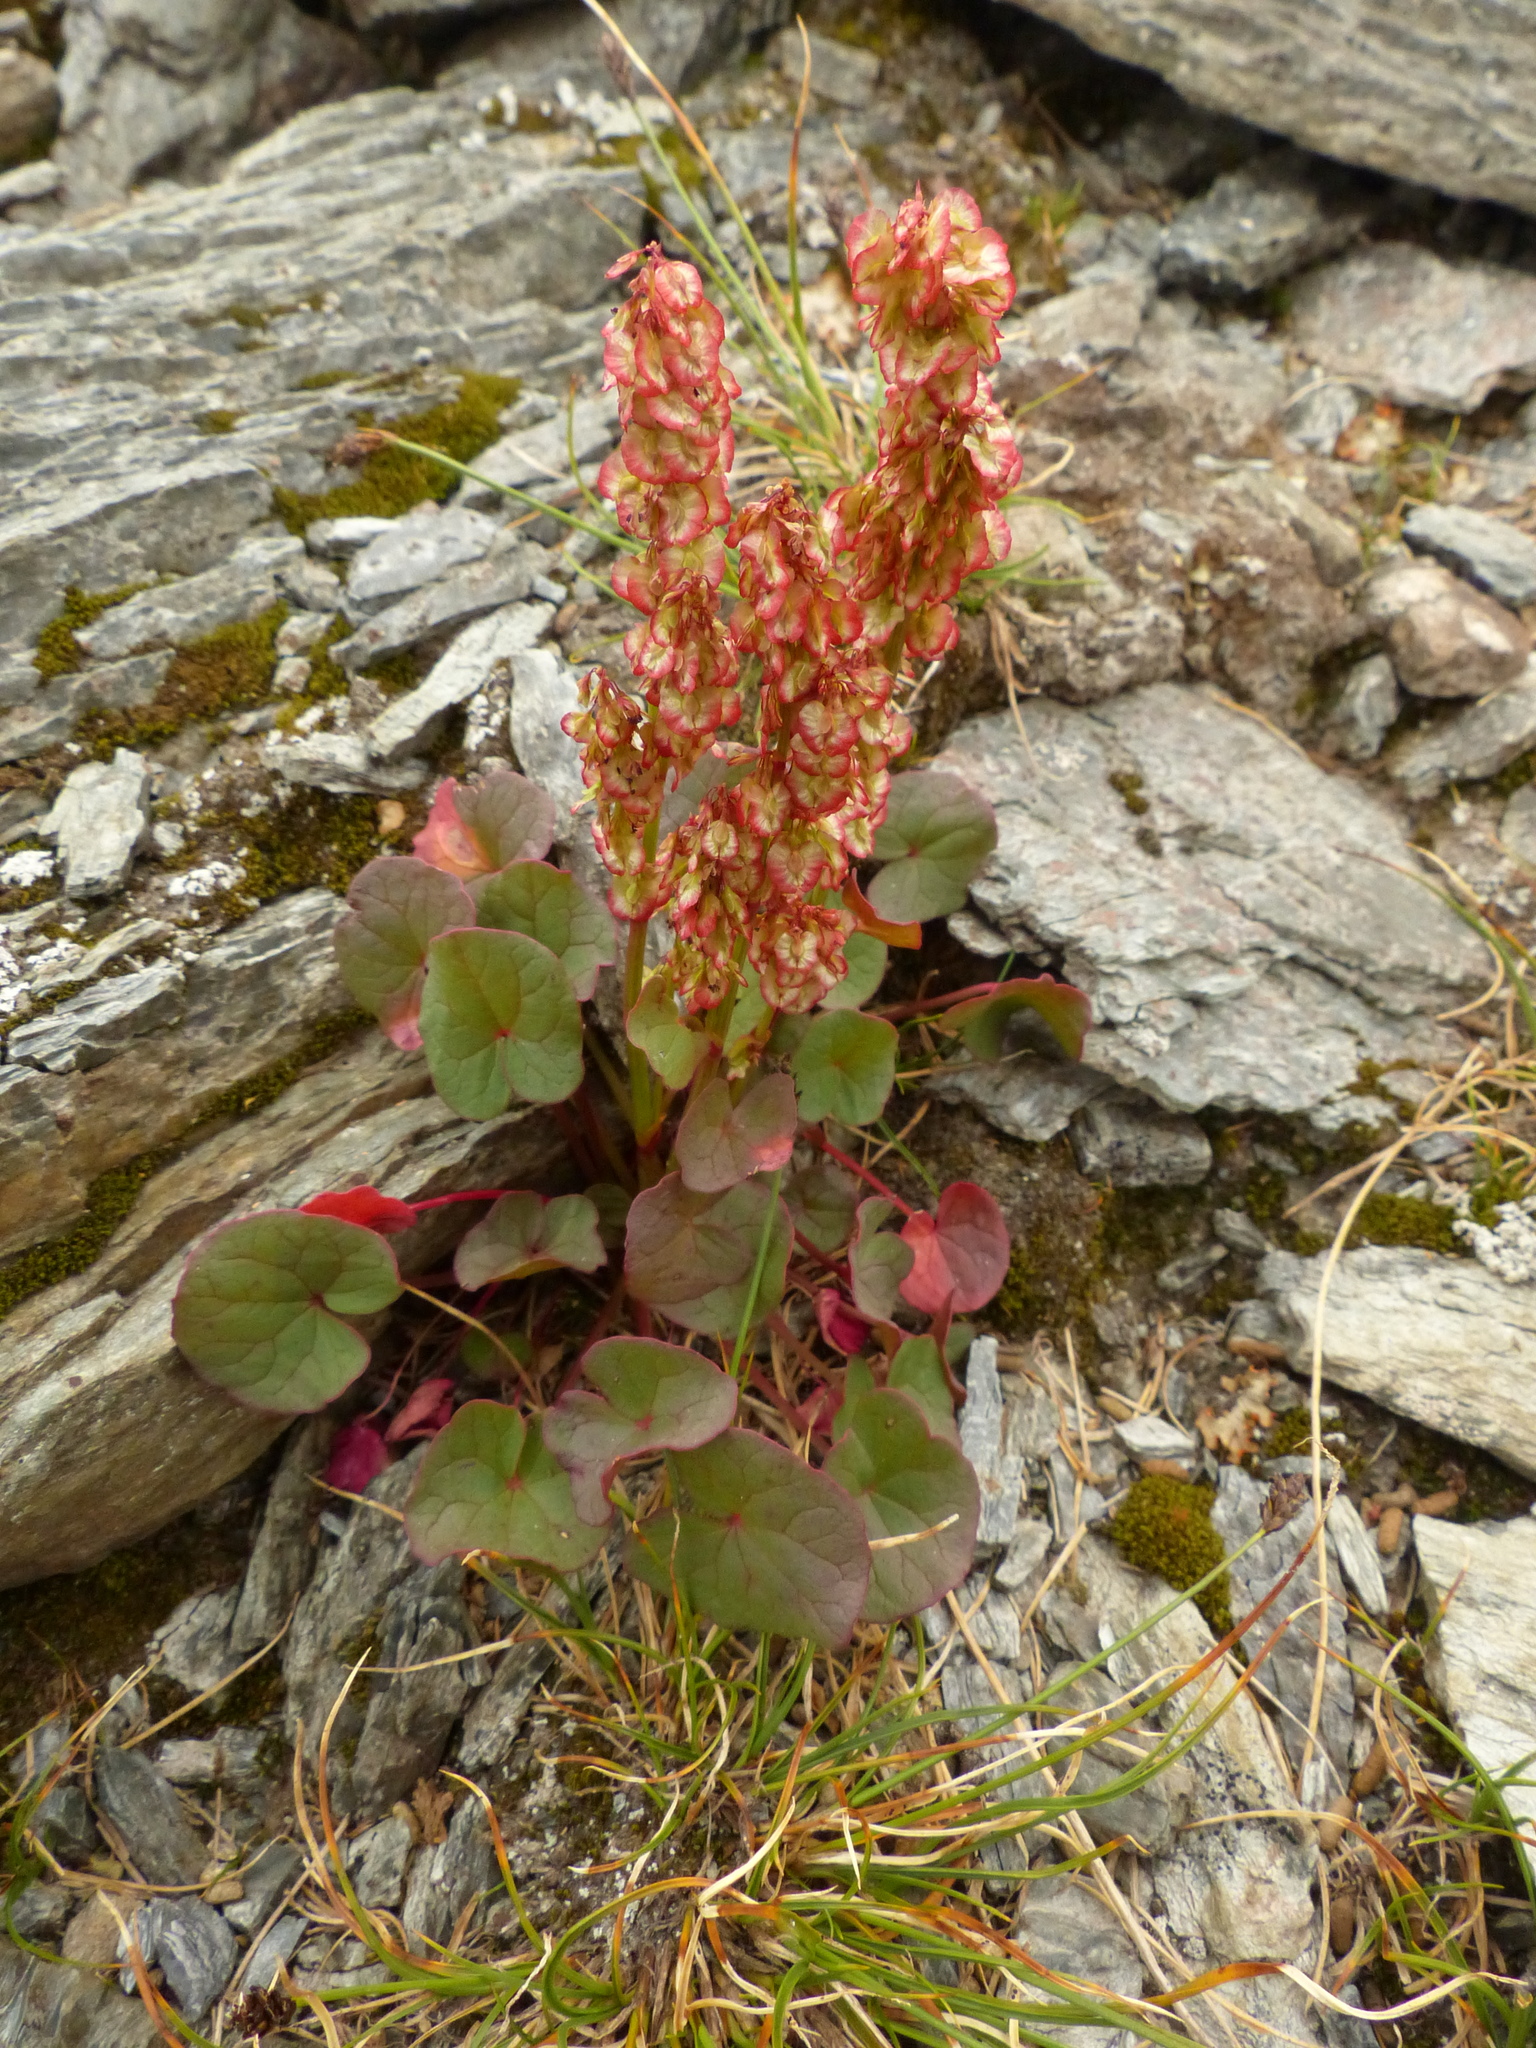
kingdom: Plantae
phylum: Tracheophyta
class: Magnoliopsida
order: Caryophyllales
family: Polygonaceae
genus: Oxyria
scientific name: Oxyria digyna
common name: Alpine mountain-sorrel
